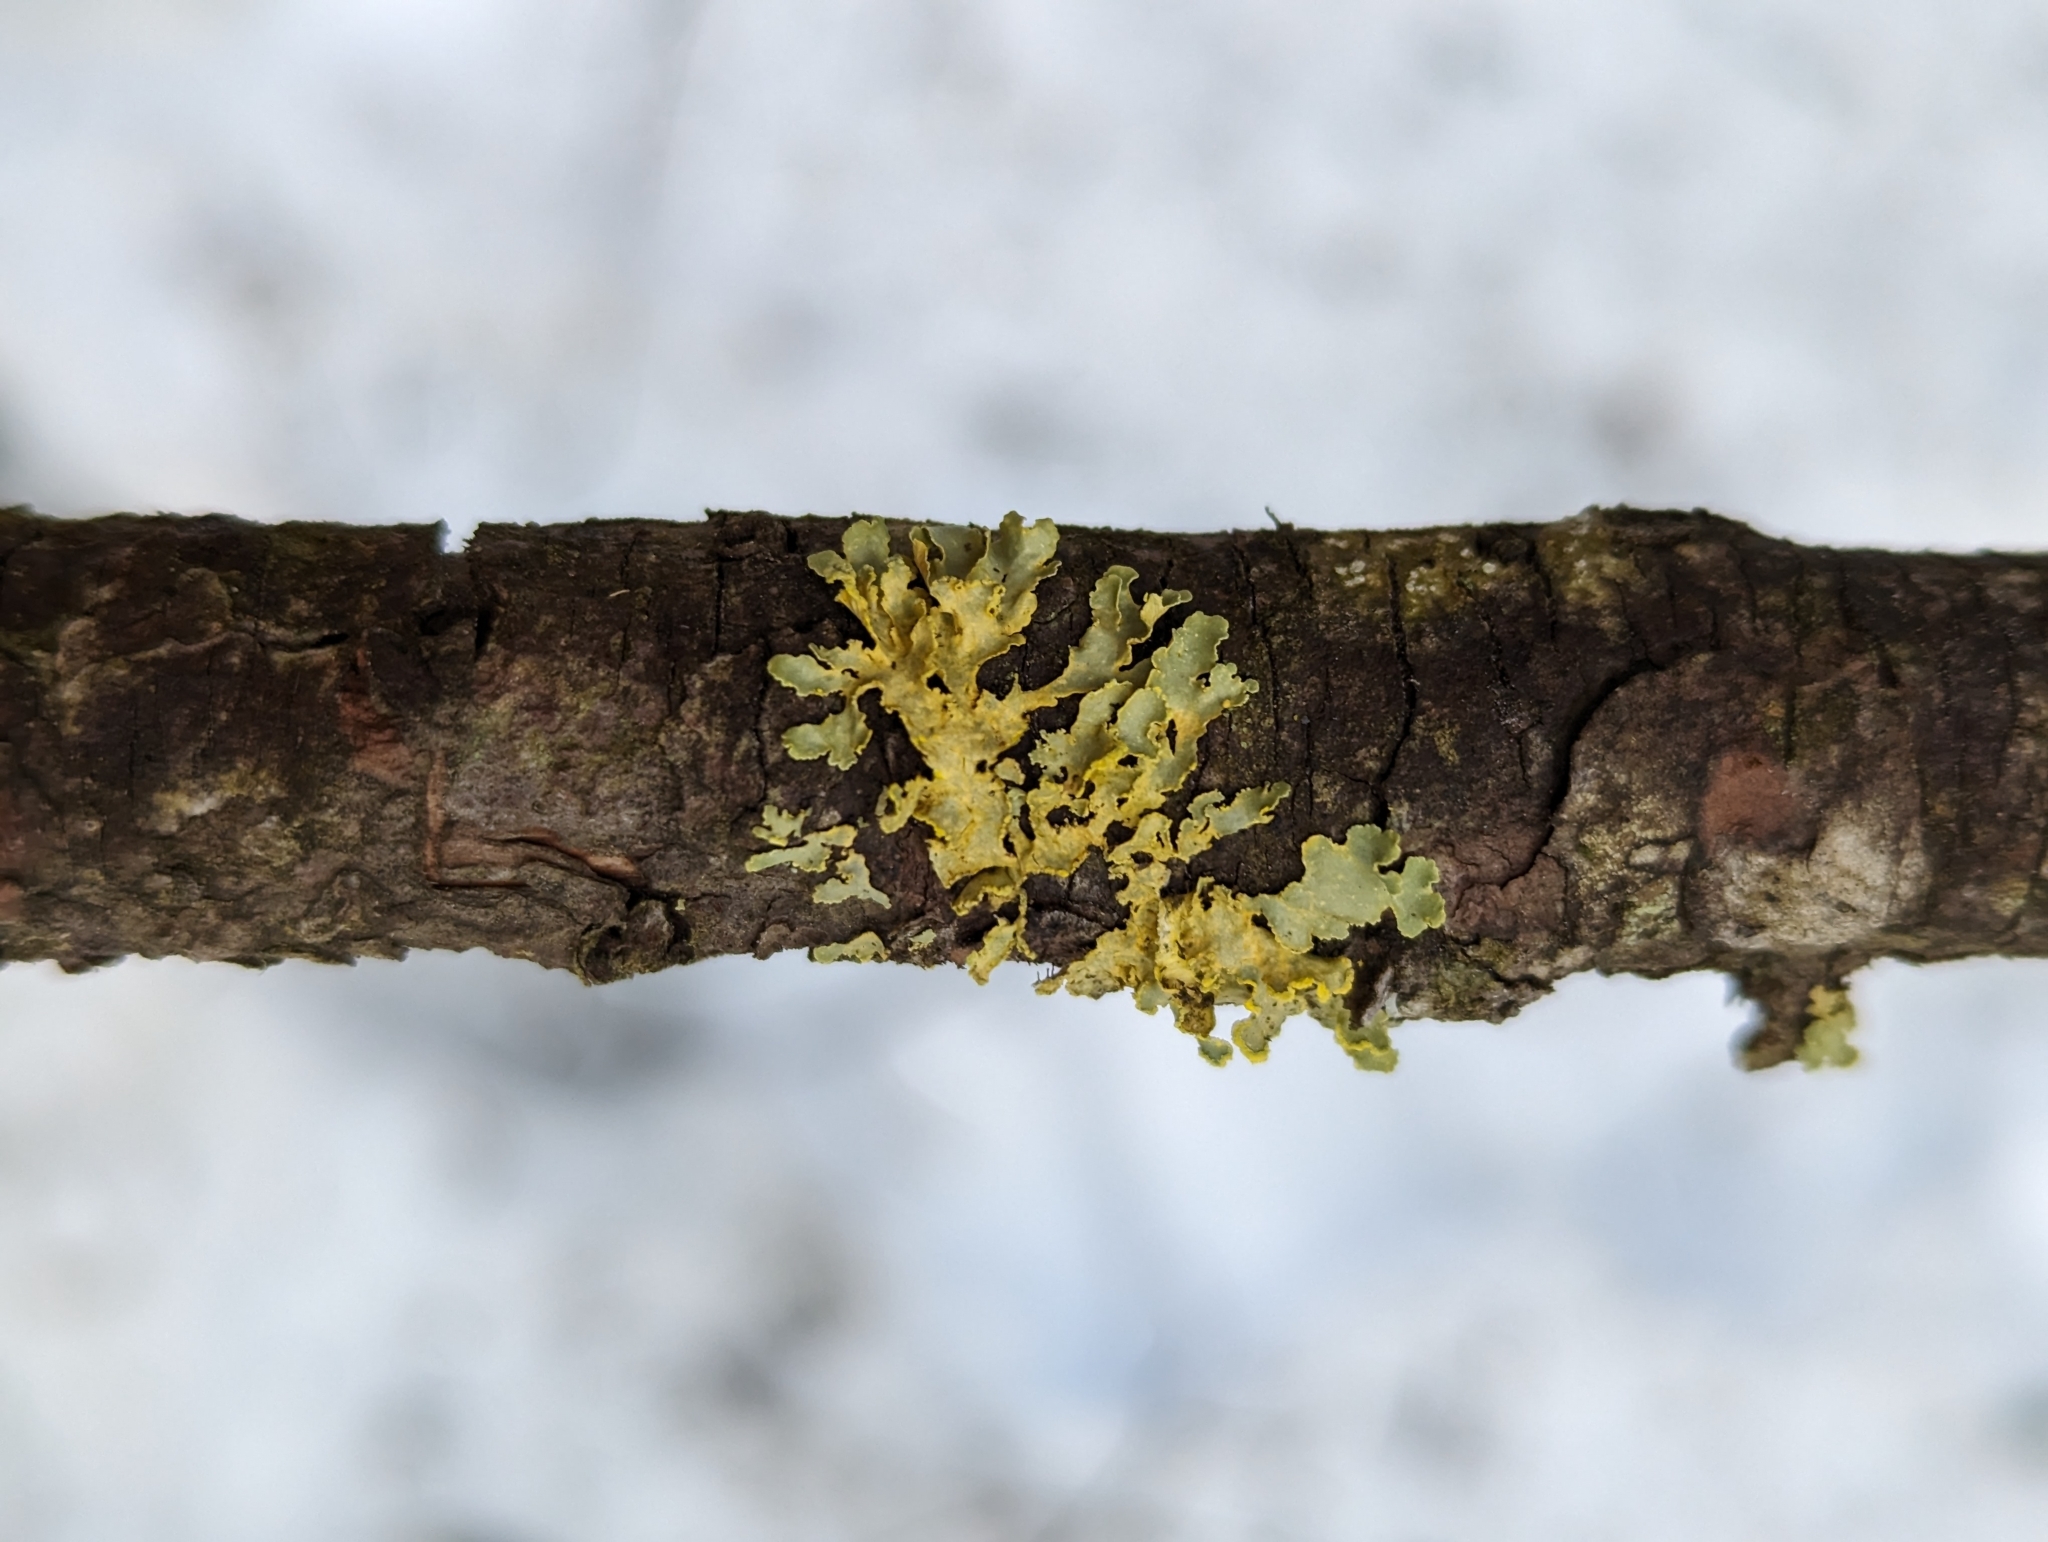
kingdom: Fungi
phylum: Ascomycota
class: Lecanoromycetes
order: Lecanorales
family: Parmeliaceae
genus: Vulpicida
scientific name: Vulpicida pinastri
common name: Powdered sunshine lichen
